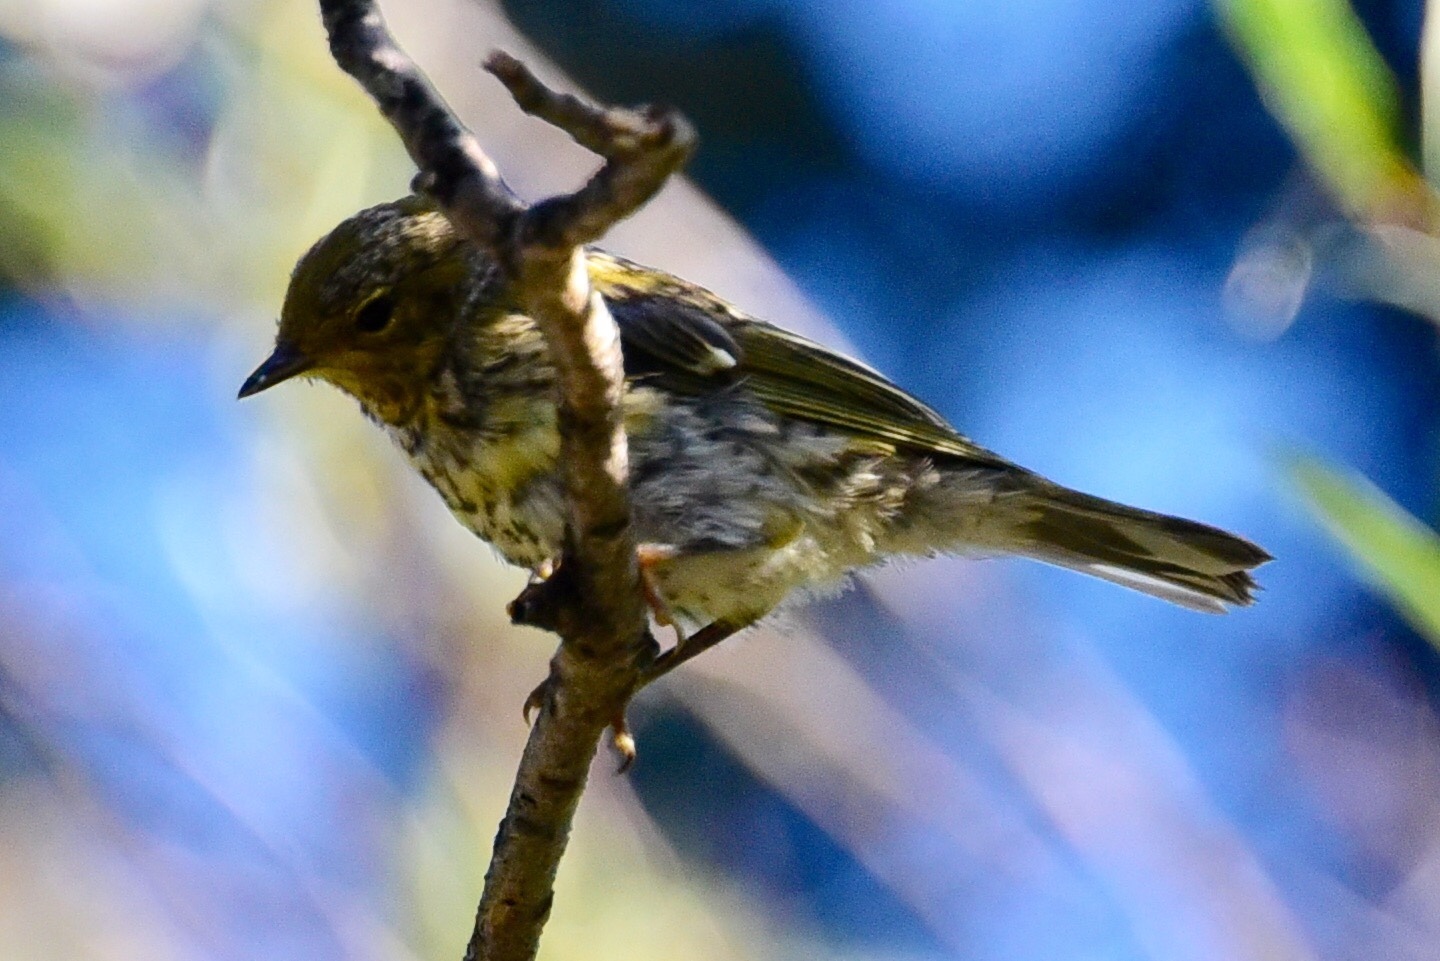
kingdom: Animalia
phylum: Chordata
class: Aves
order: Passeriformes
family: Parulidae
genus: Setophaga
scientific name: Setophaga tigrina
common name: Cape may warbler
